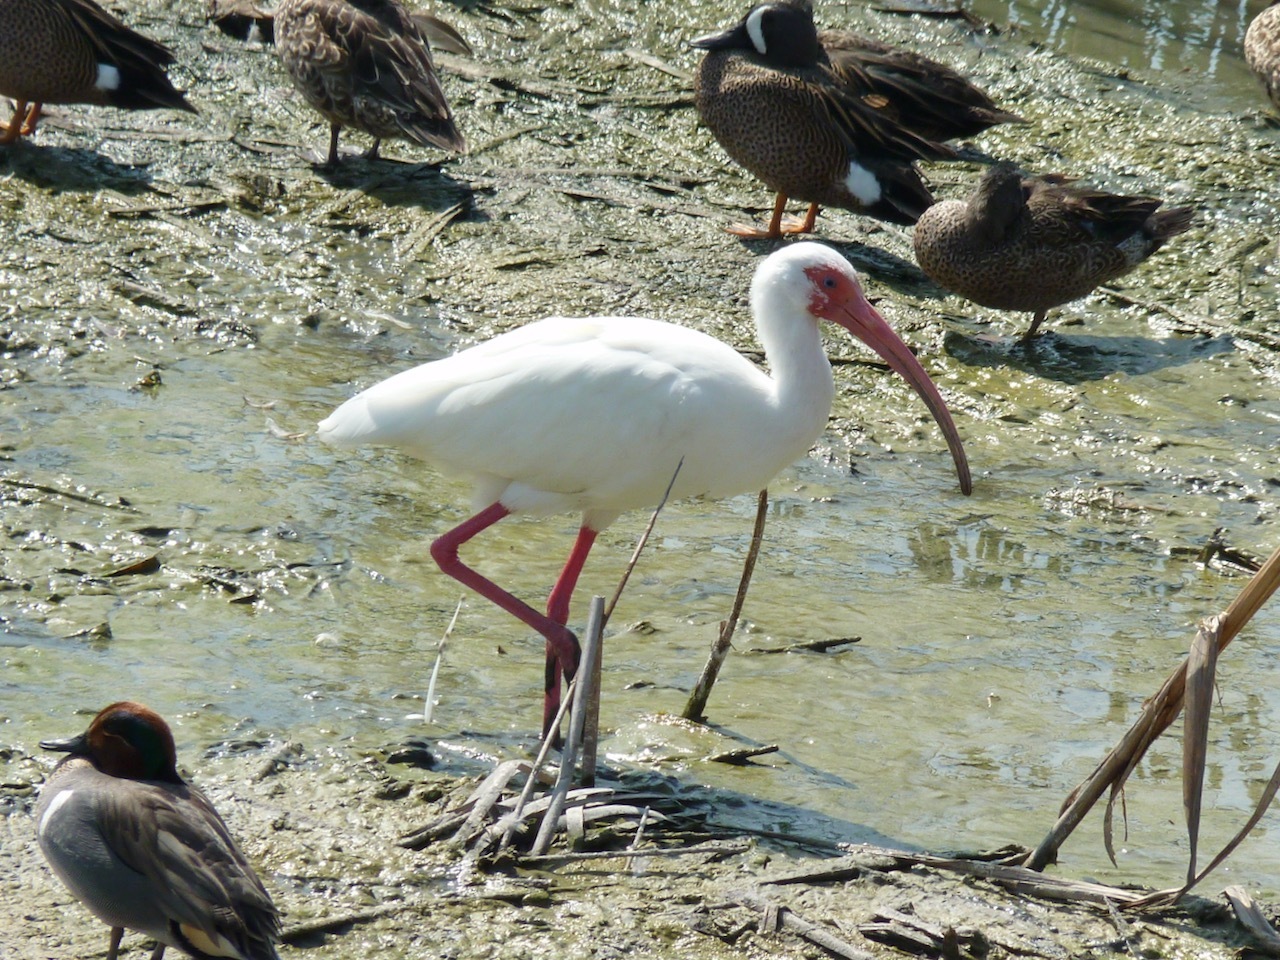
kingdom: Animalia
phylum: Chordata
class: Aves
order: Pelecaniformes
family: Threskiornithidae
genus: Eudocimus
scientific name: Eudocimus albus
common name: White ibis
